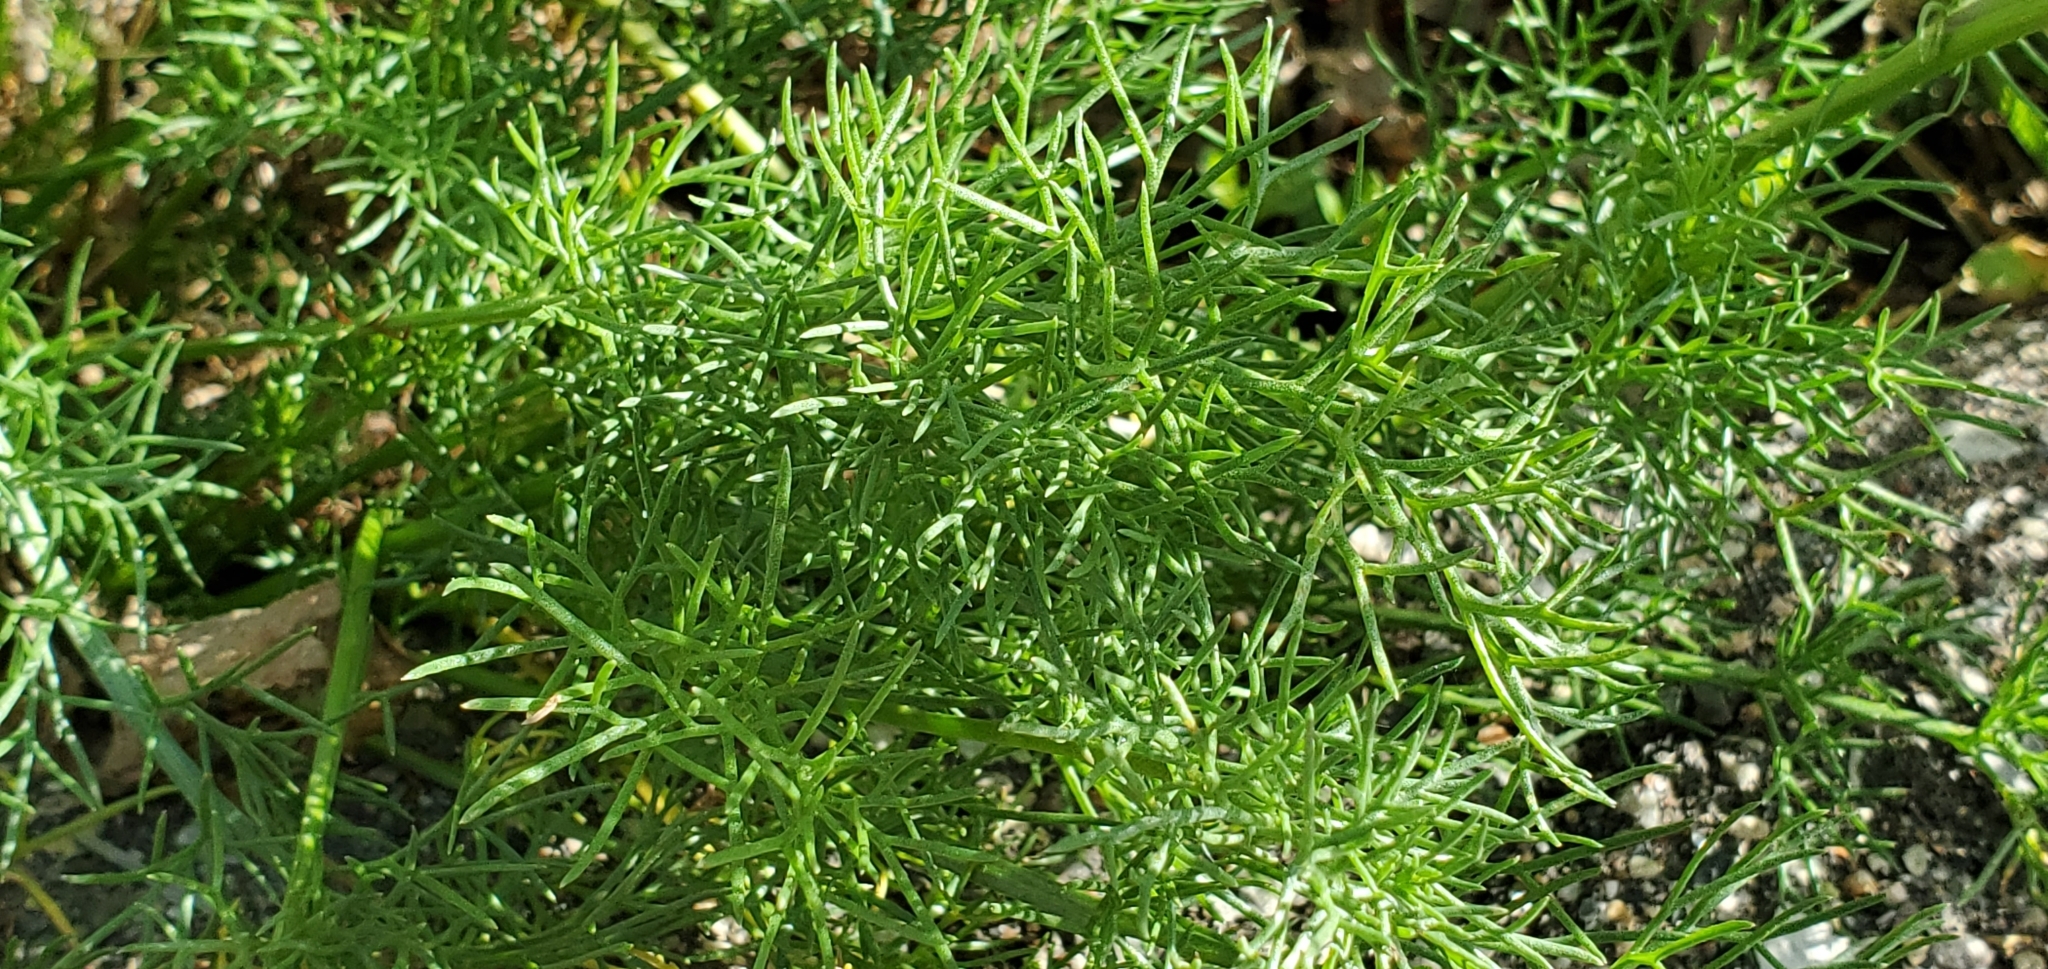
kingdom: Plantae
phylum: Tracheophyta
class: Magnoliopsida
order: Asterales
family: Asteraceae
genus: Tripleurospermum
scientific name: Tripleurospermum inodorum
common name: Scentless mayweed
